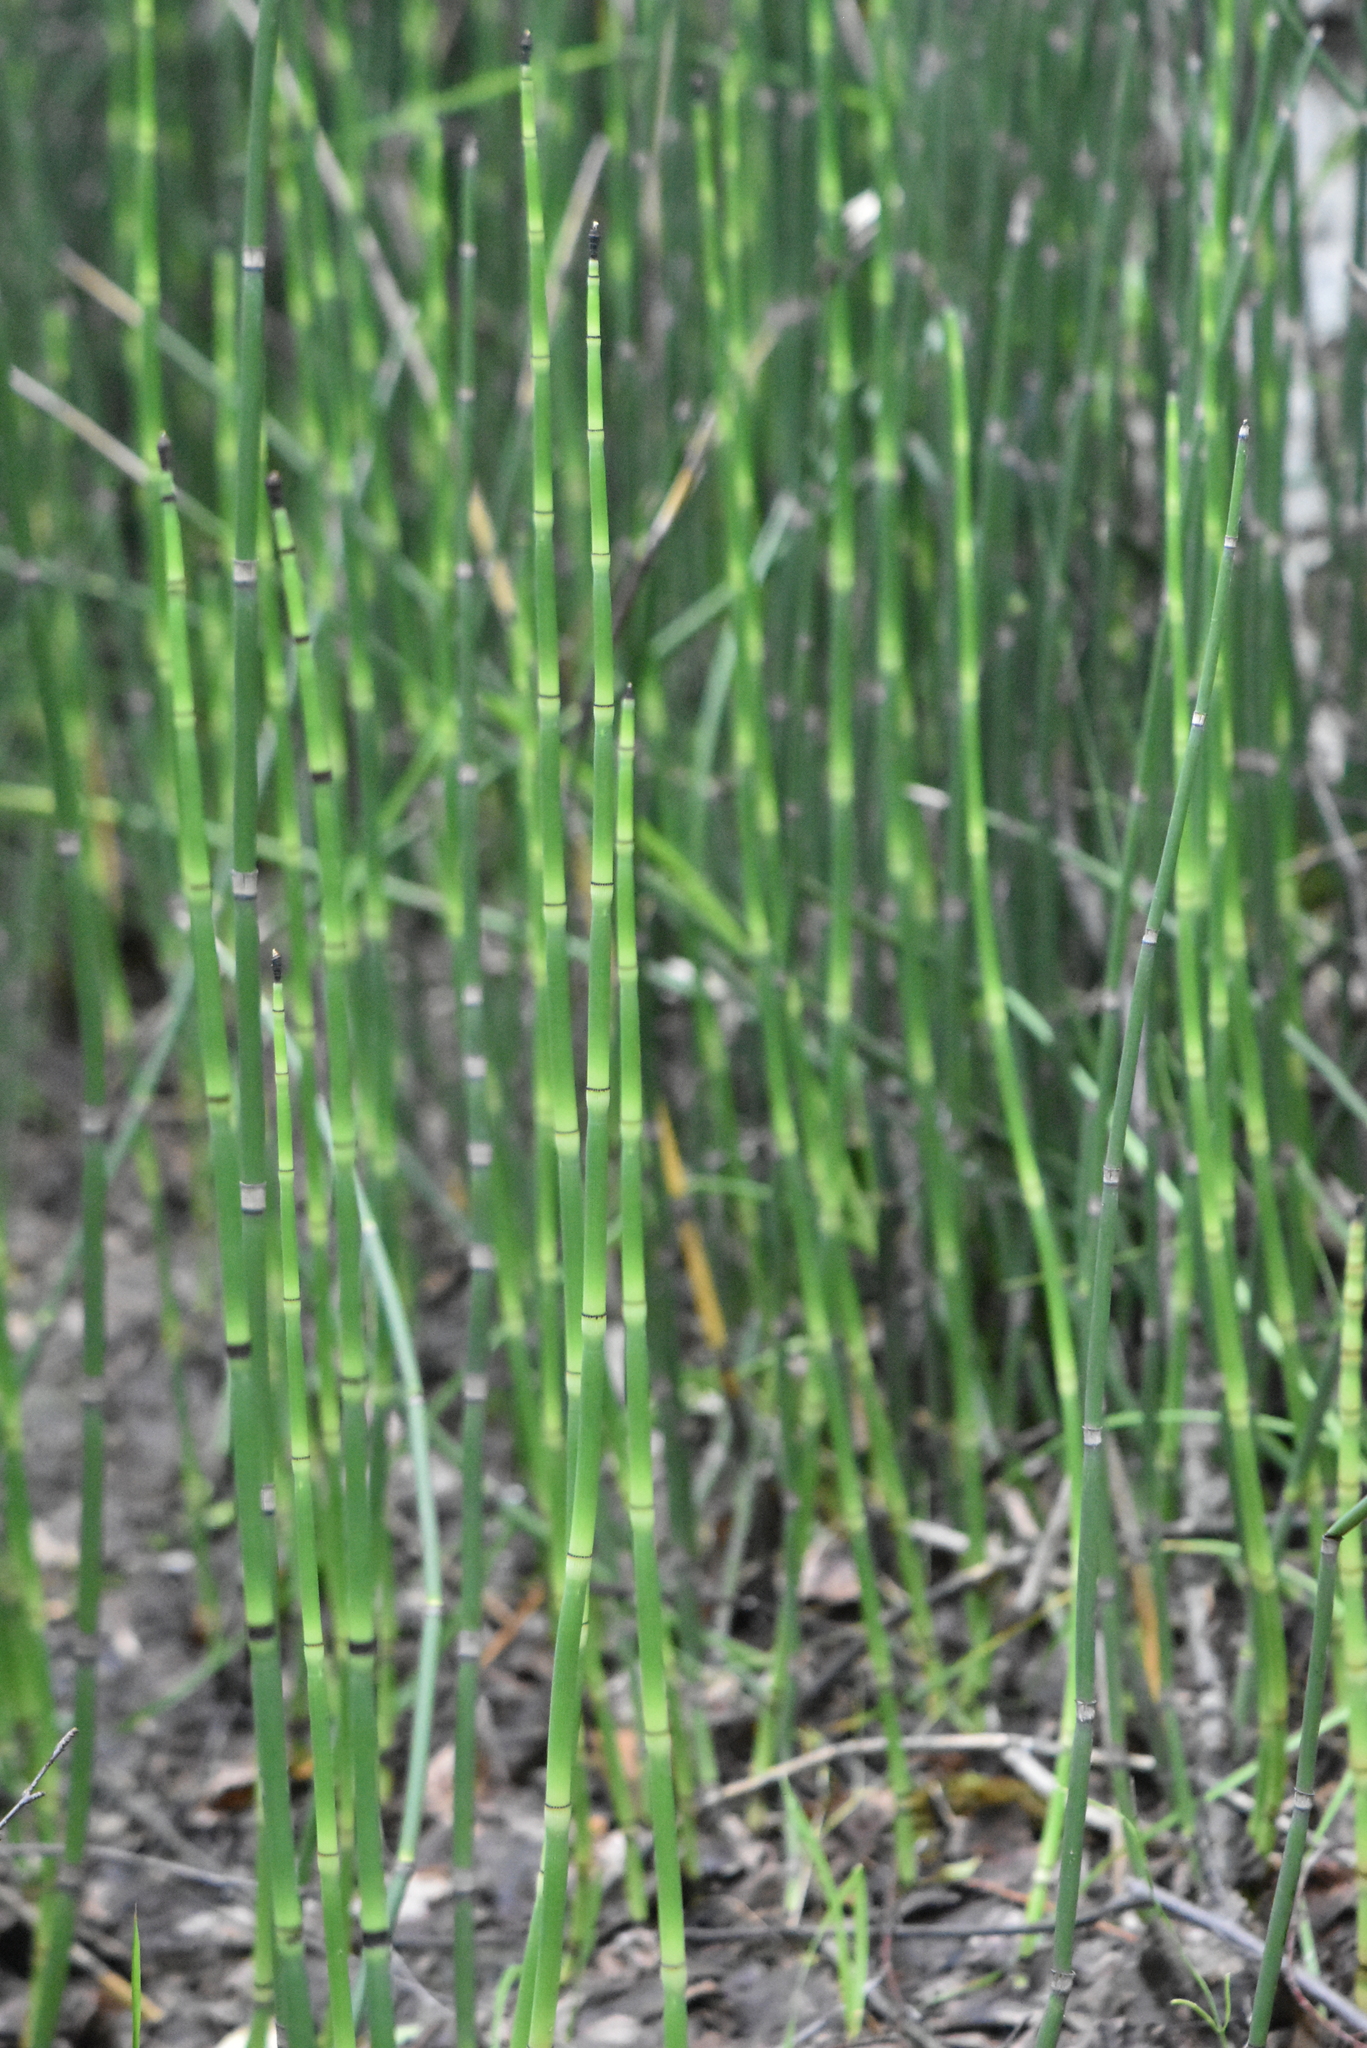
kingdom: Plantae
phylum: Tracheophyta
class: Polypodiopsida
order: Equisetales
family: Equisetaceae
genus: Equisetum
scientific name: Equisetum hyemale
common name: Rough horsetail
